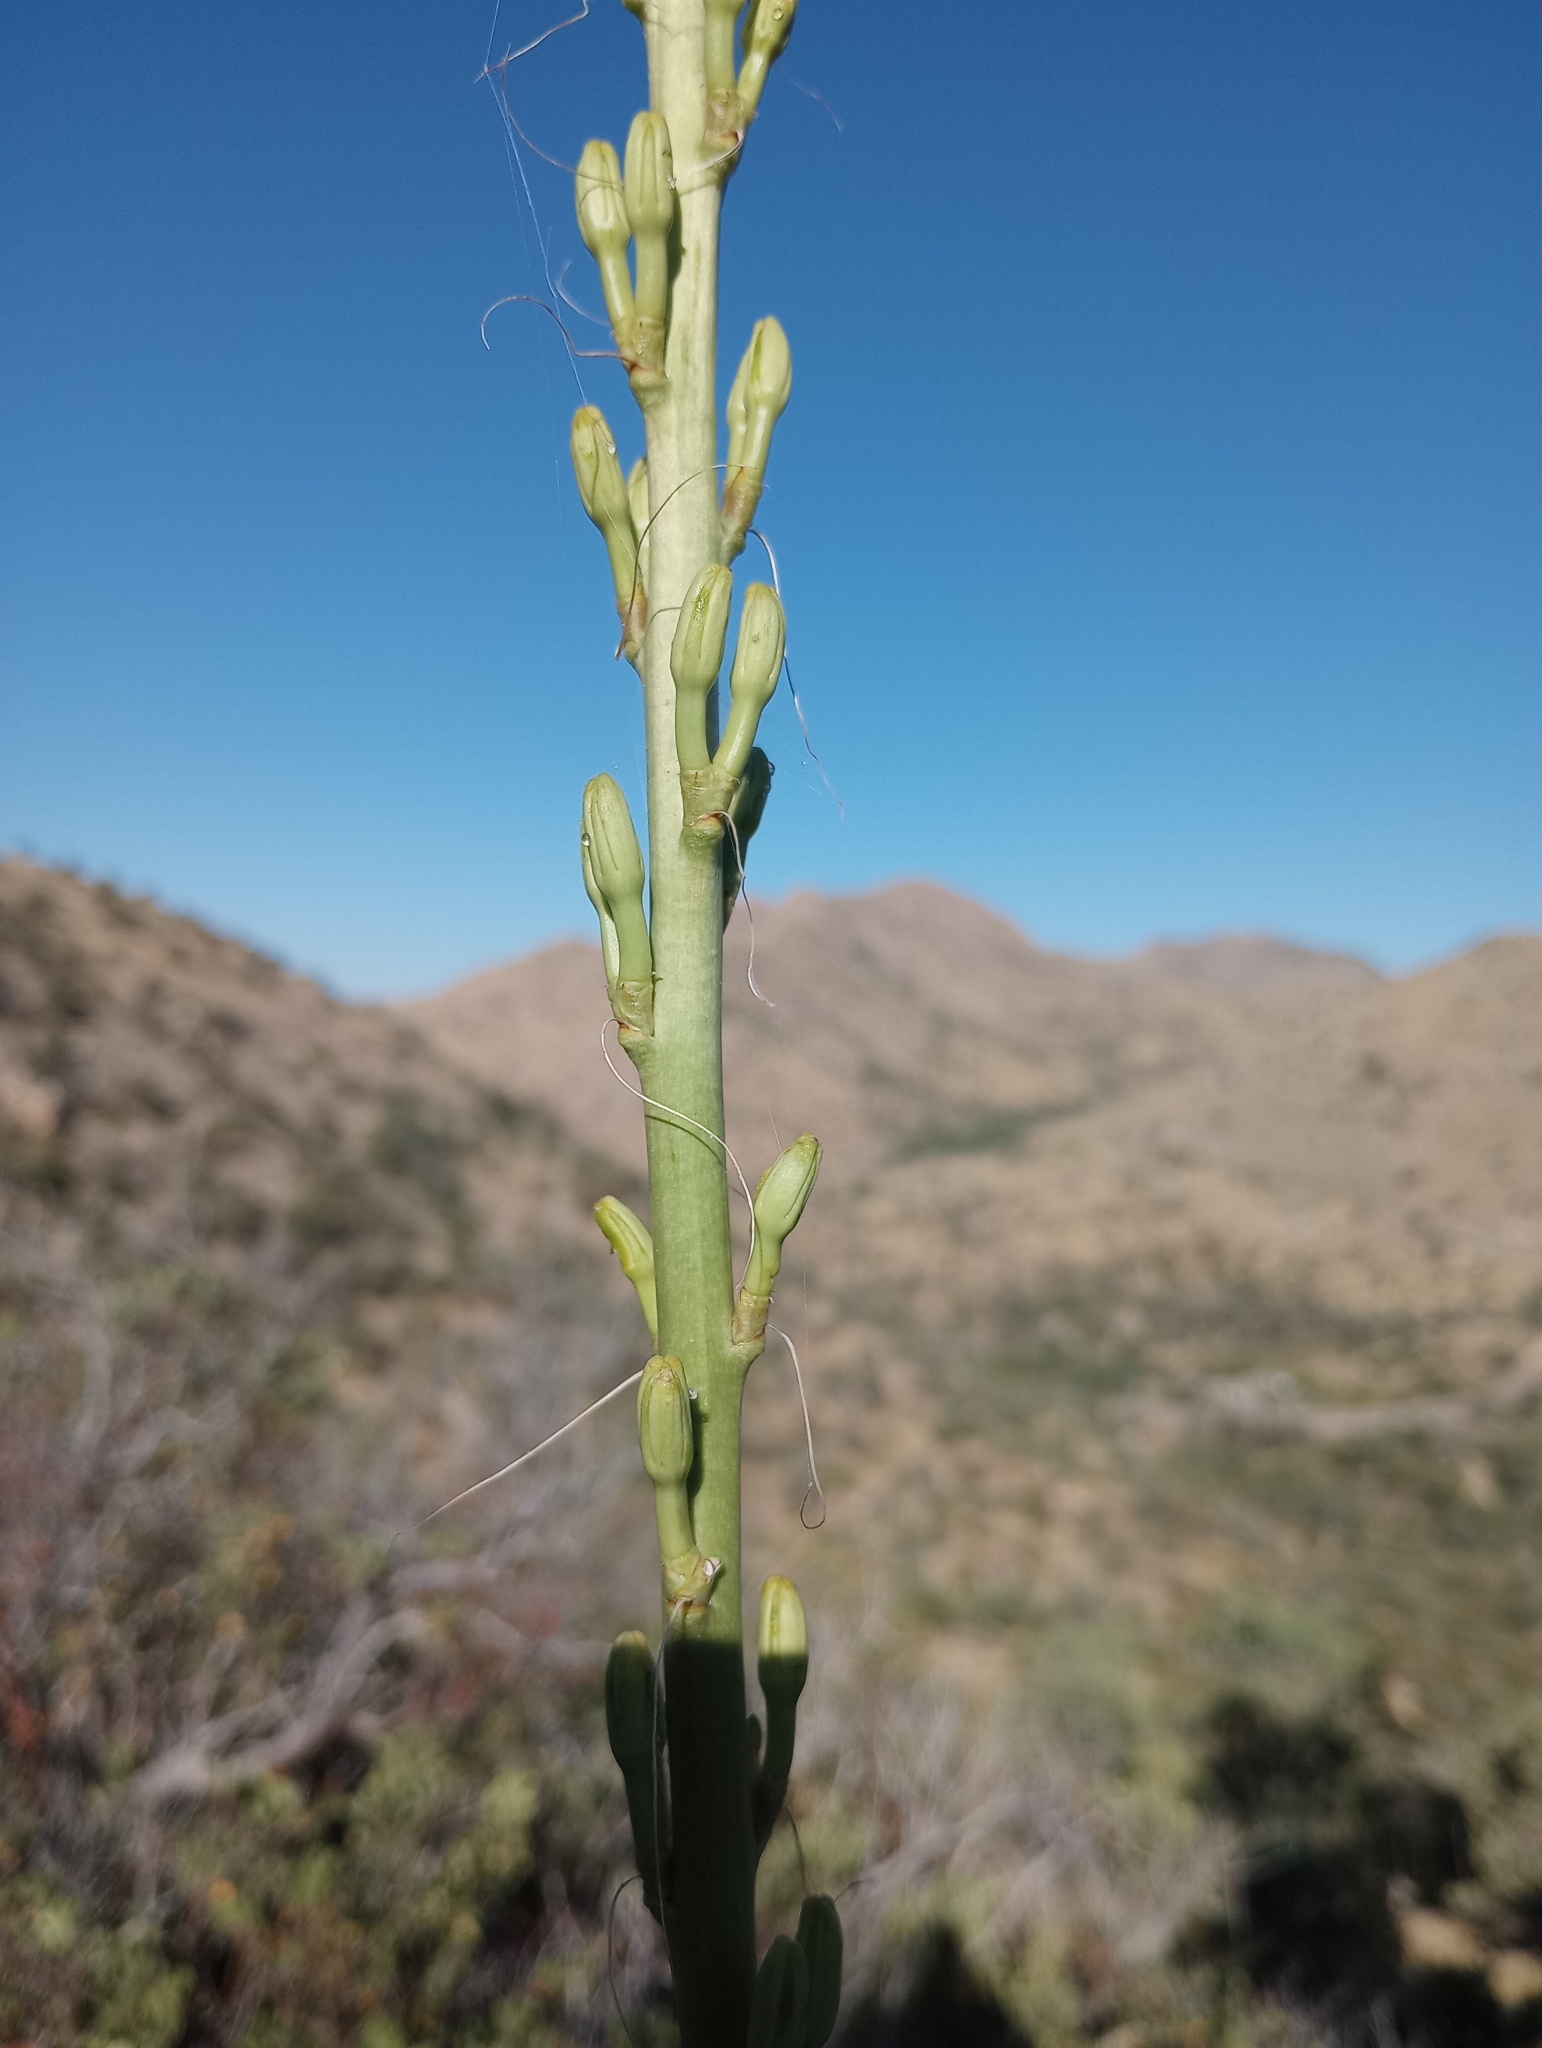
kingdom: Plantae
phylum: Tracheophyta
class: Liliopsida
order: Asparagales
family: Asparagaceae
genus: Agave
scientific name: Agave schottii
